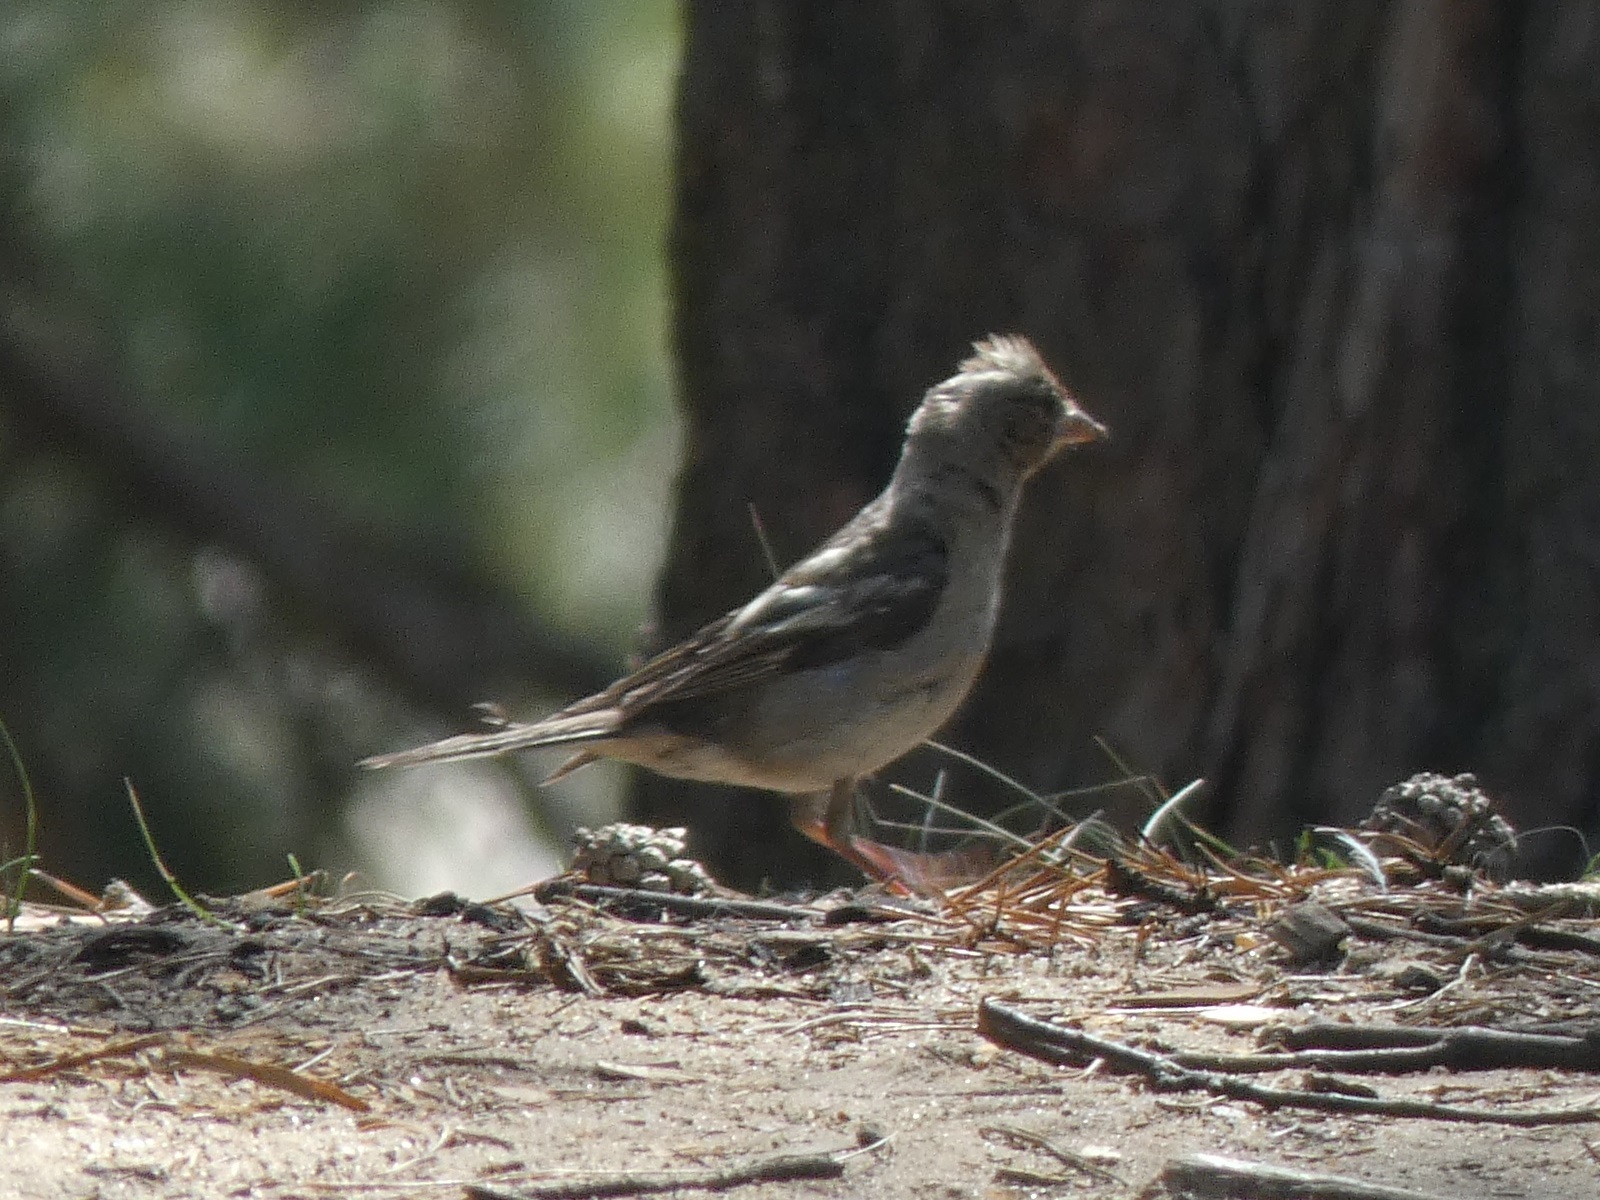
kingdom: Animalia
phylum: Chordata
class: Aves
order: Passeriformes
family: Fringillidae
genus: Fringilla
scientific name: Fringilla coelebs
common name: Common chaffinch
